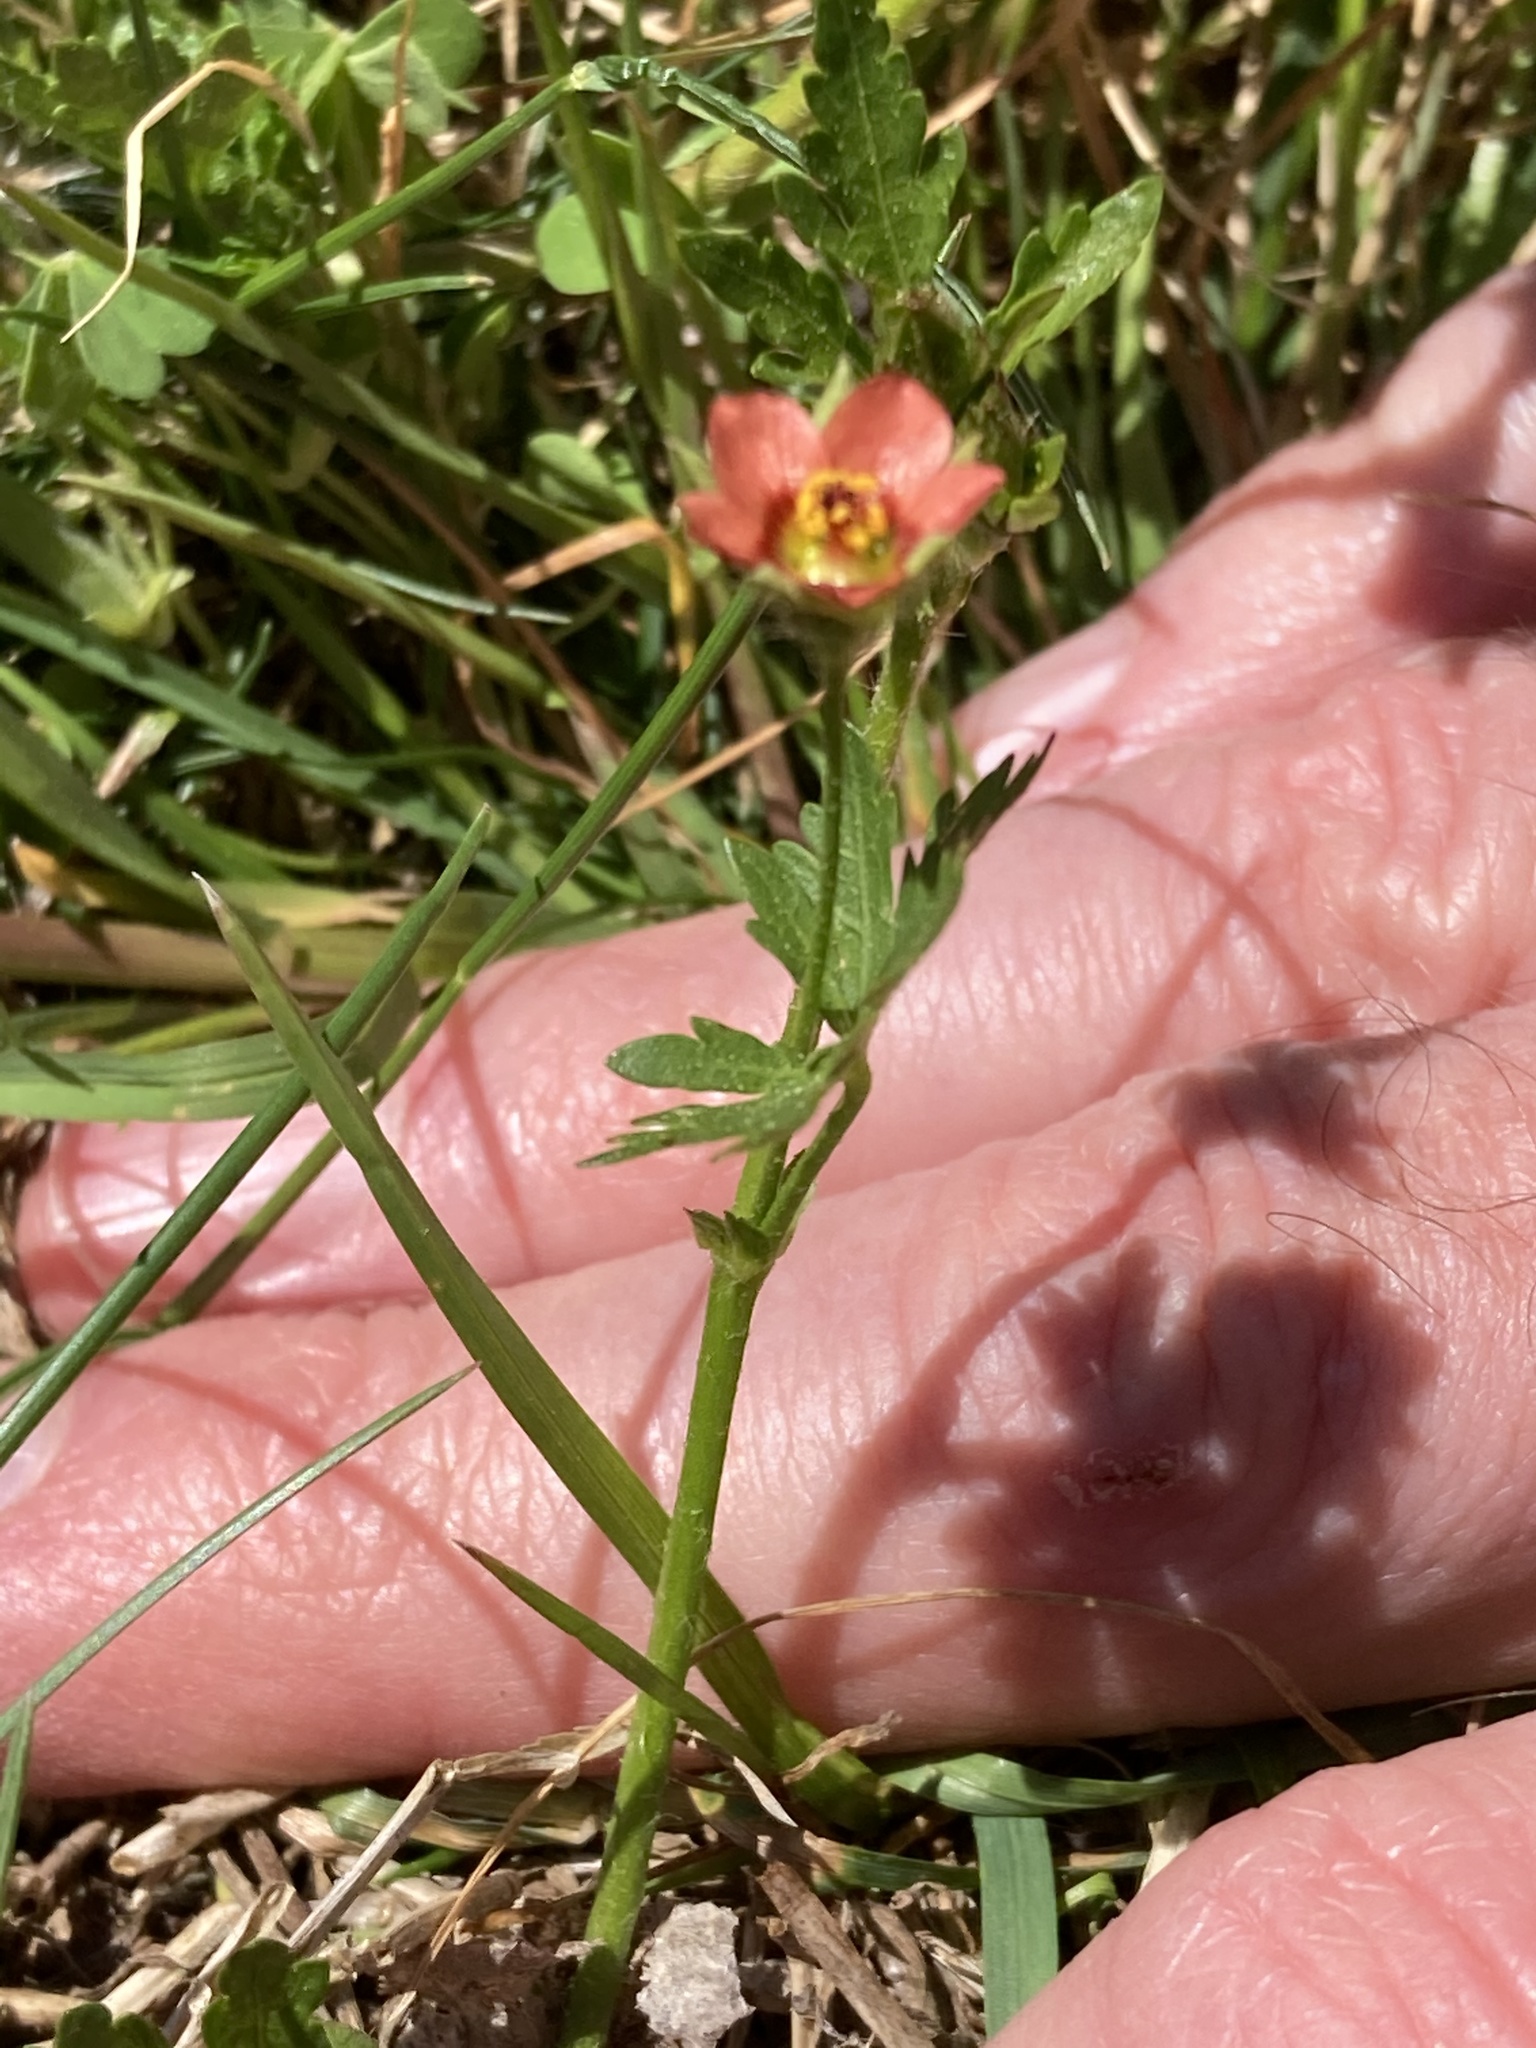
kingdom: Plantae
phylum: Tracheophyta
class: Magnoliopsida
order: Malvales
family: Malvaceae
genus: Modiola
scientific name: Modiola caroliniana
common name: Carolina bristlemallow
